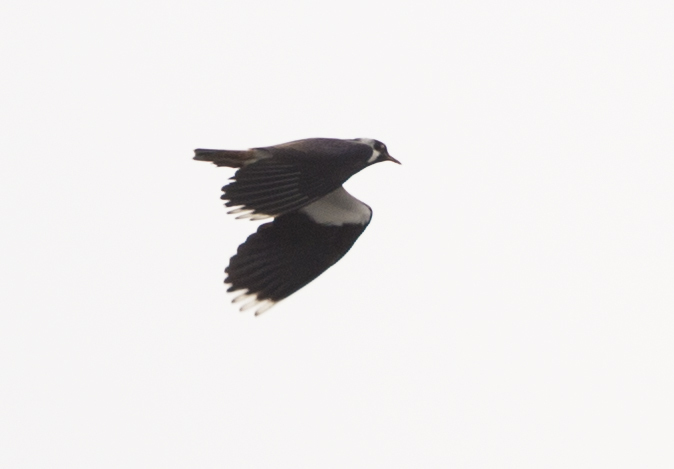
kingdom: Animalia
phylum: Chordata
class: Aves
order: Charadriiformes
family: Charadriidae
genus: Vanellus
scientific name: Vanellus vanellus
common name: Northern lapwing
